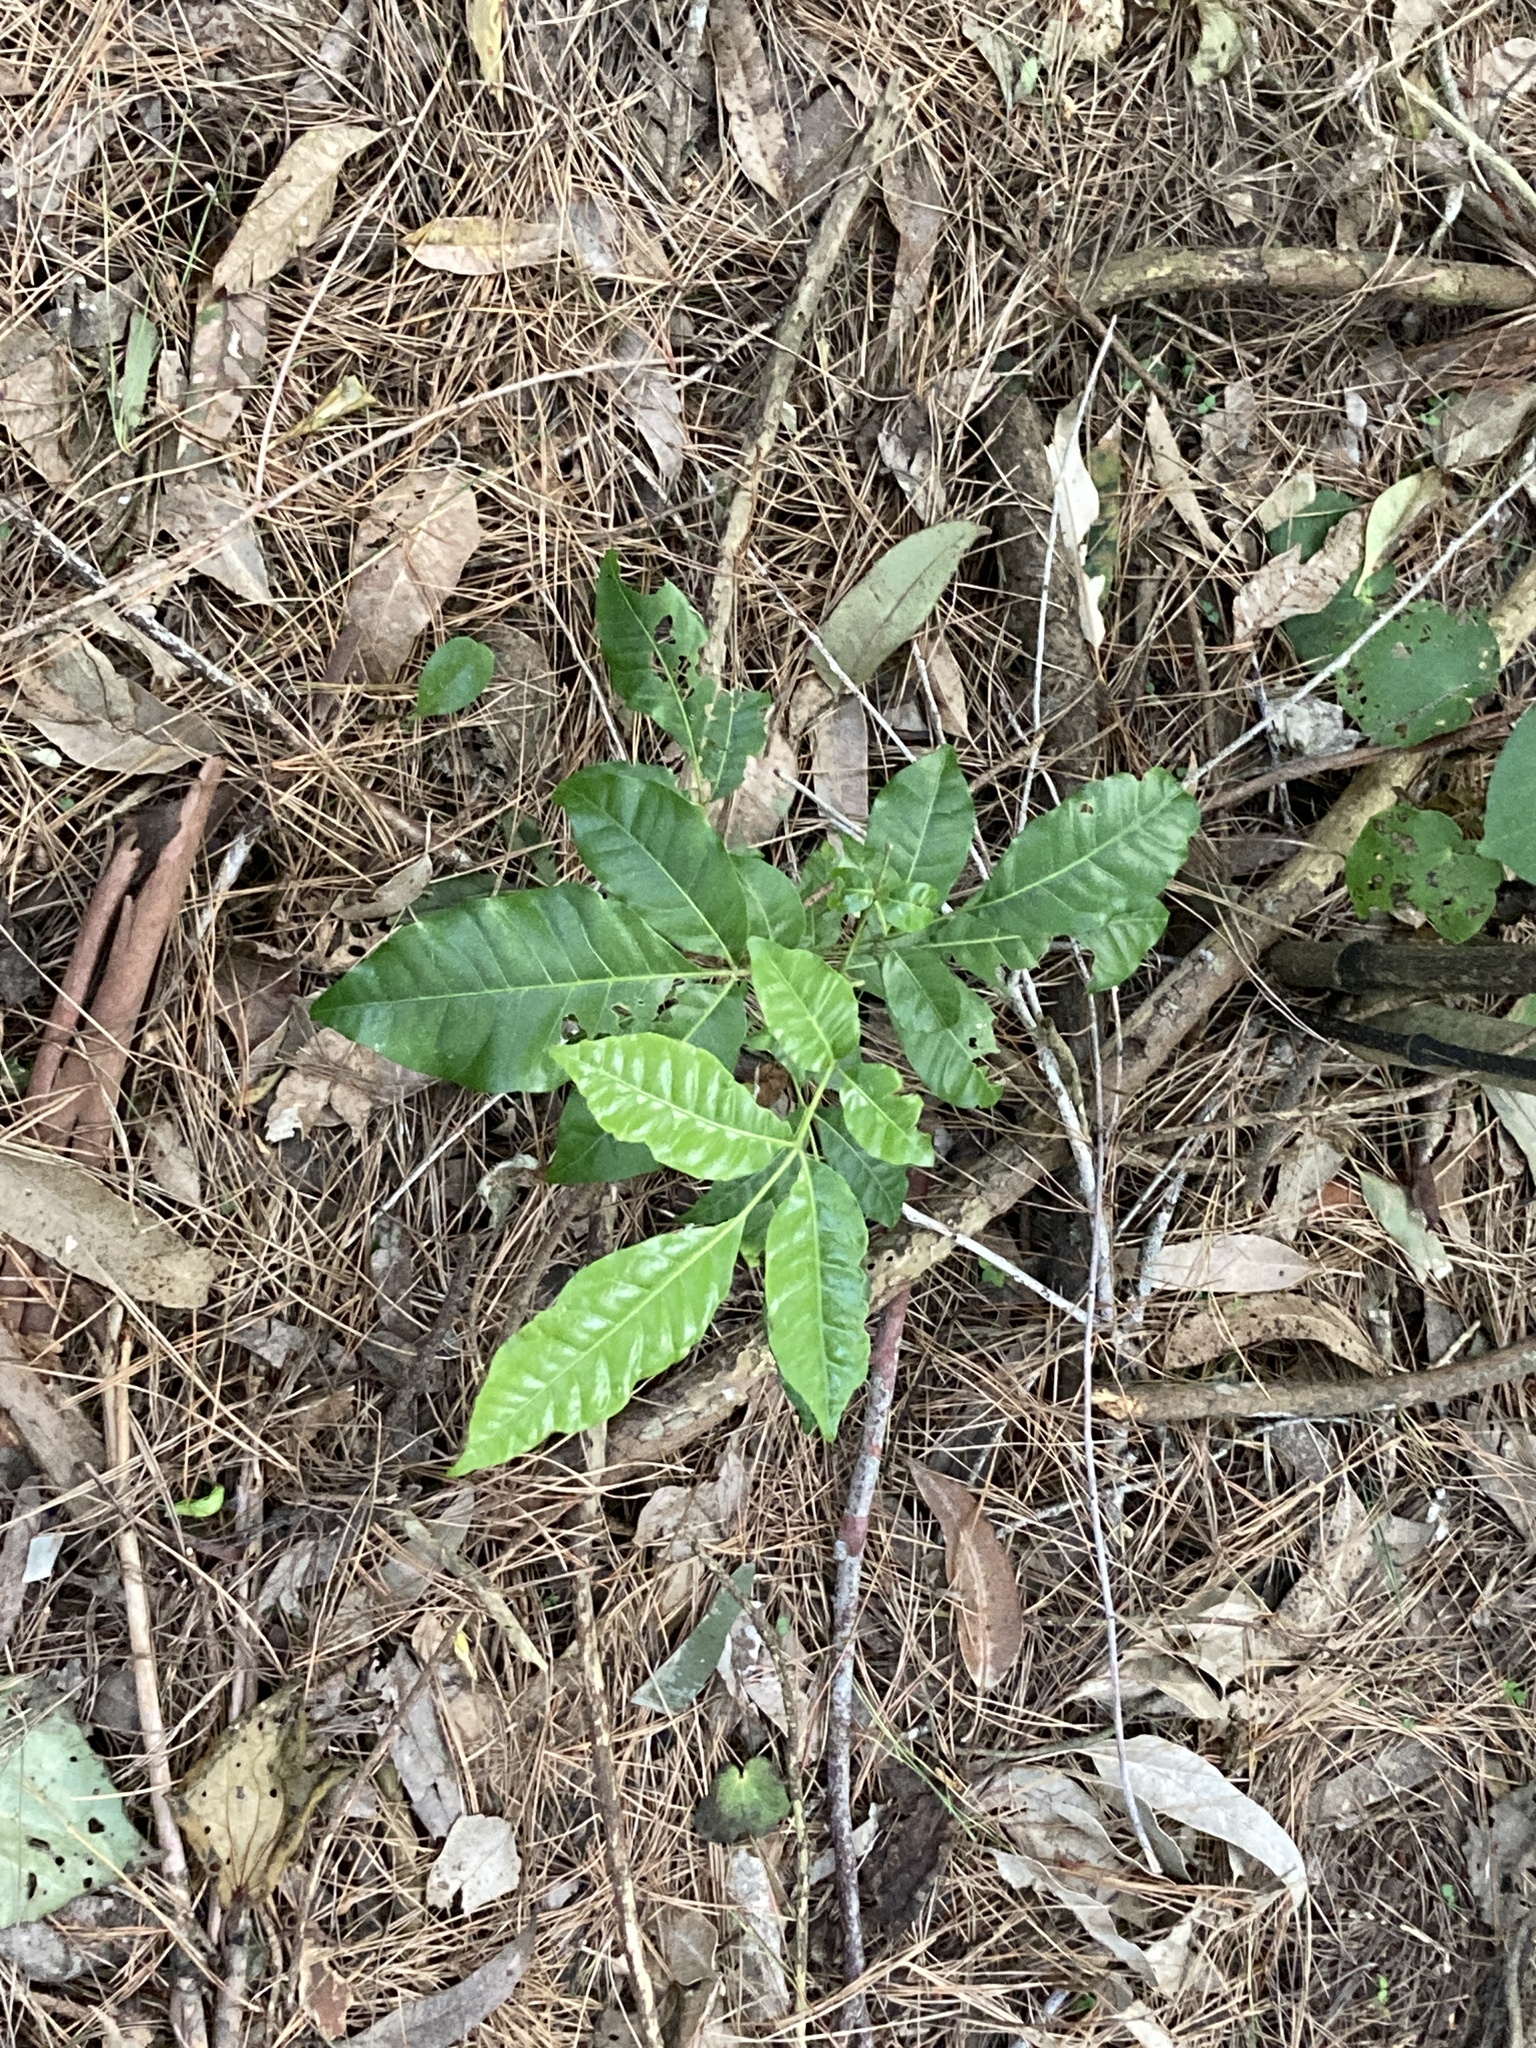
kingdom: Plantae
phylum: Tracheophyta
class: Magnoliopsida
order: Sapindales
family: Meliaceae
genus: Didymocheton
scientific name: Didymocheton spectabilis
